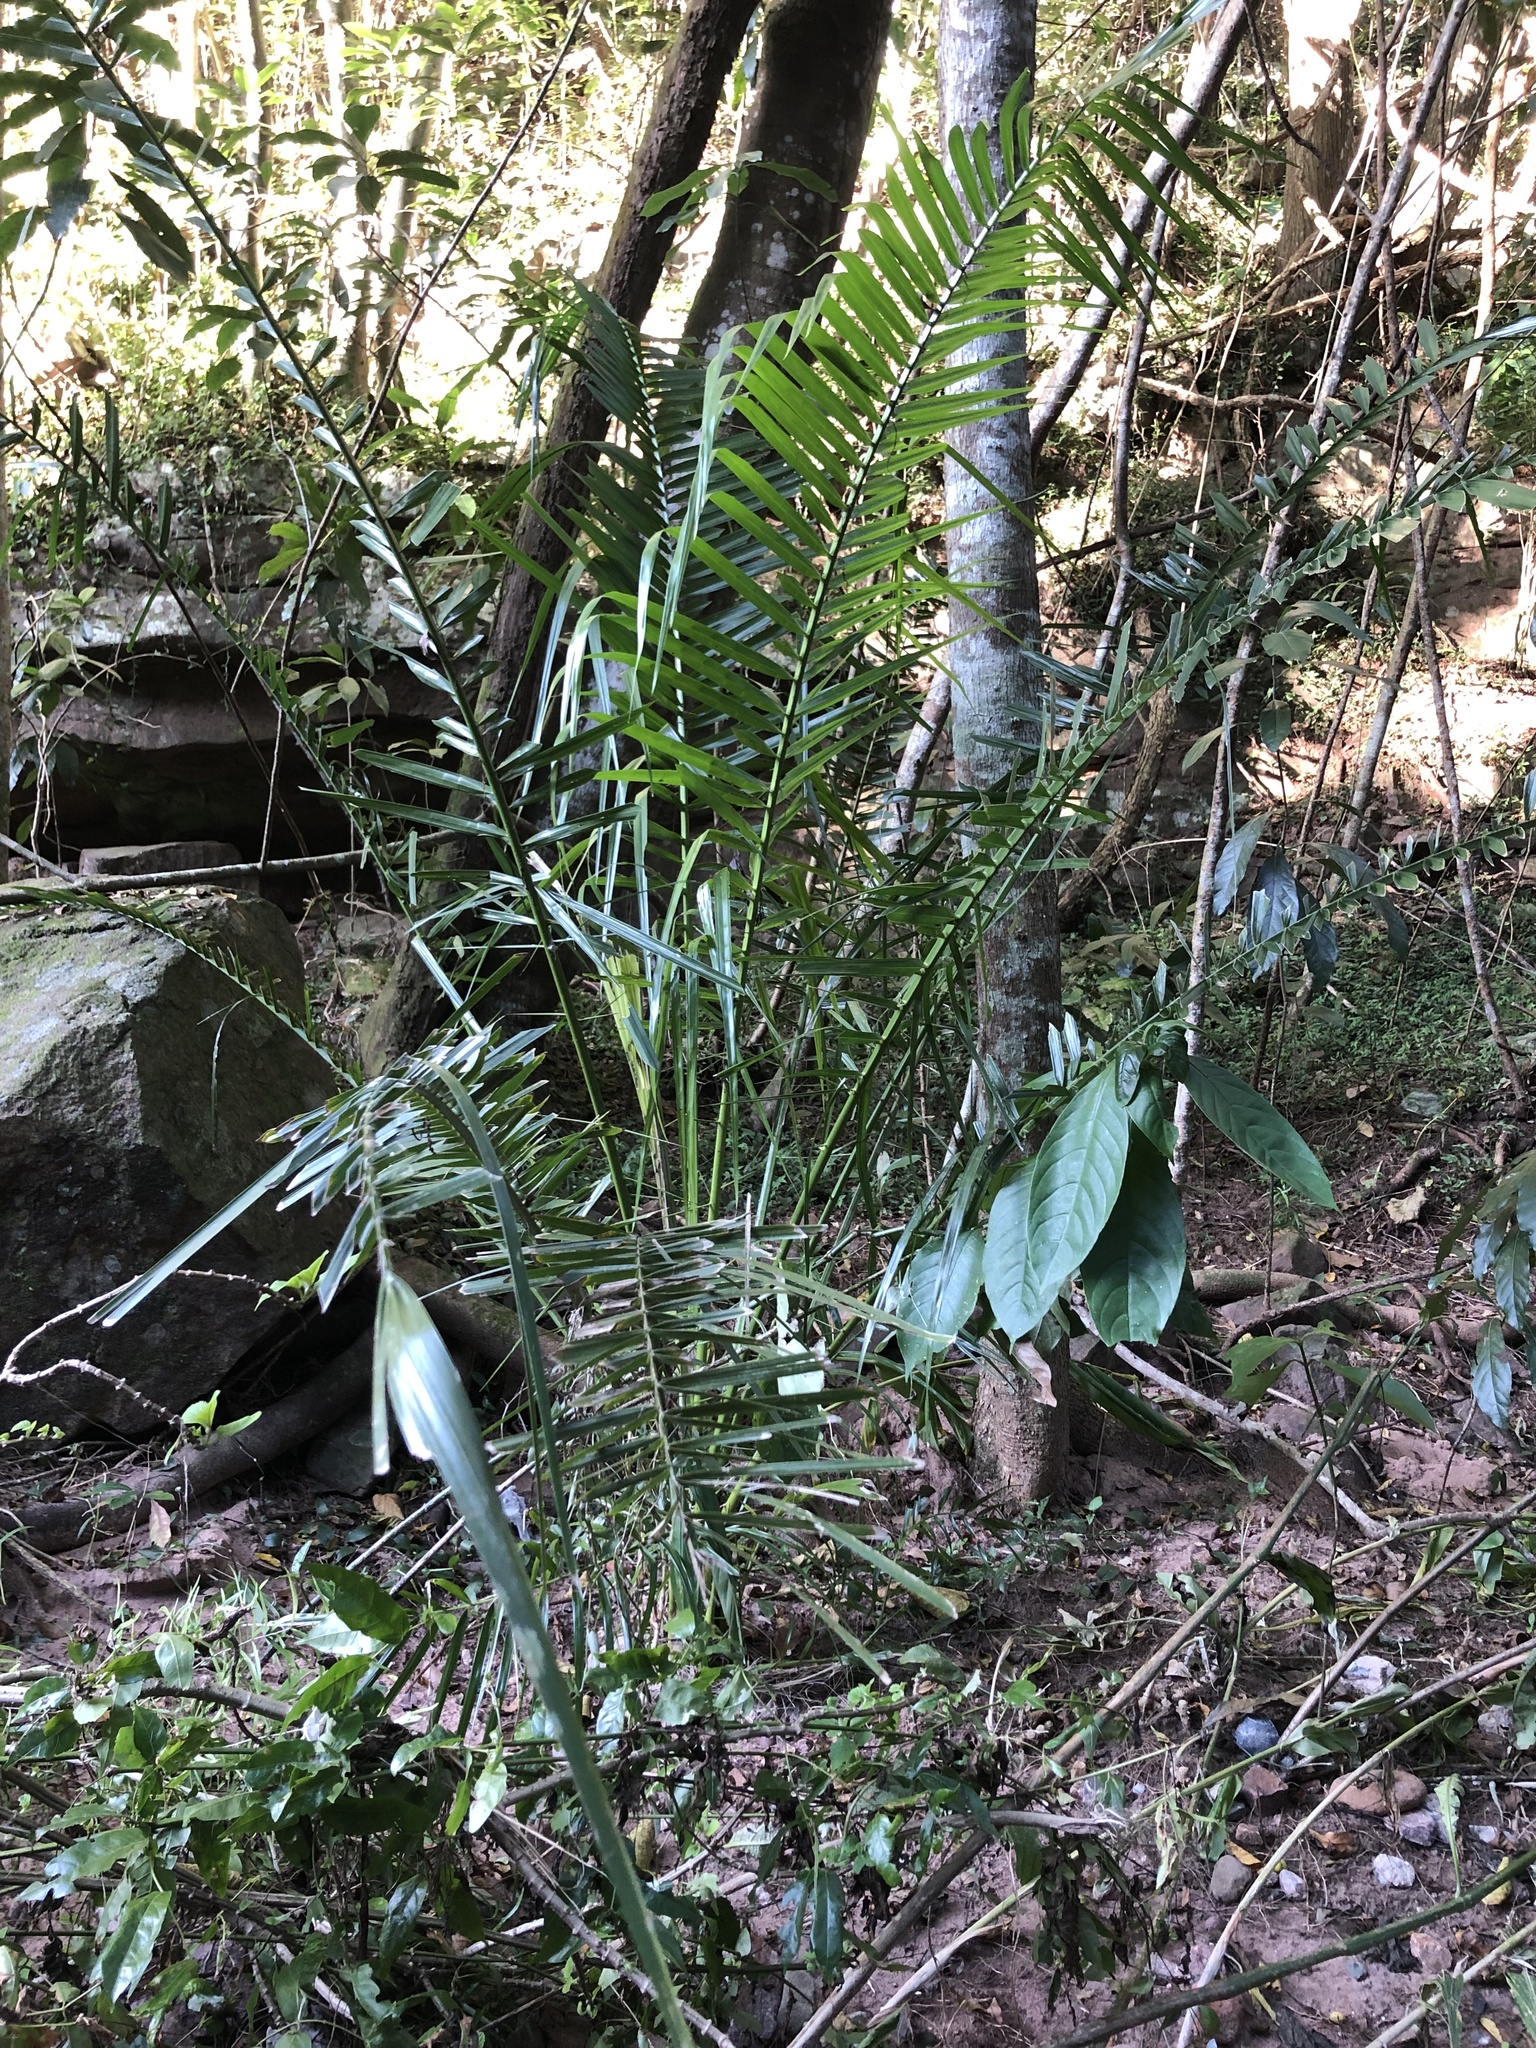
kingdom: Plantae
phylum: Tracheophyta
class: Liliopsida
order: Arecales
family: Arecaceae
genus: Phoenix
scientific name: Phoenix reclinata
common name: Senegal date palm
